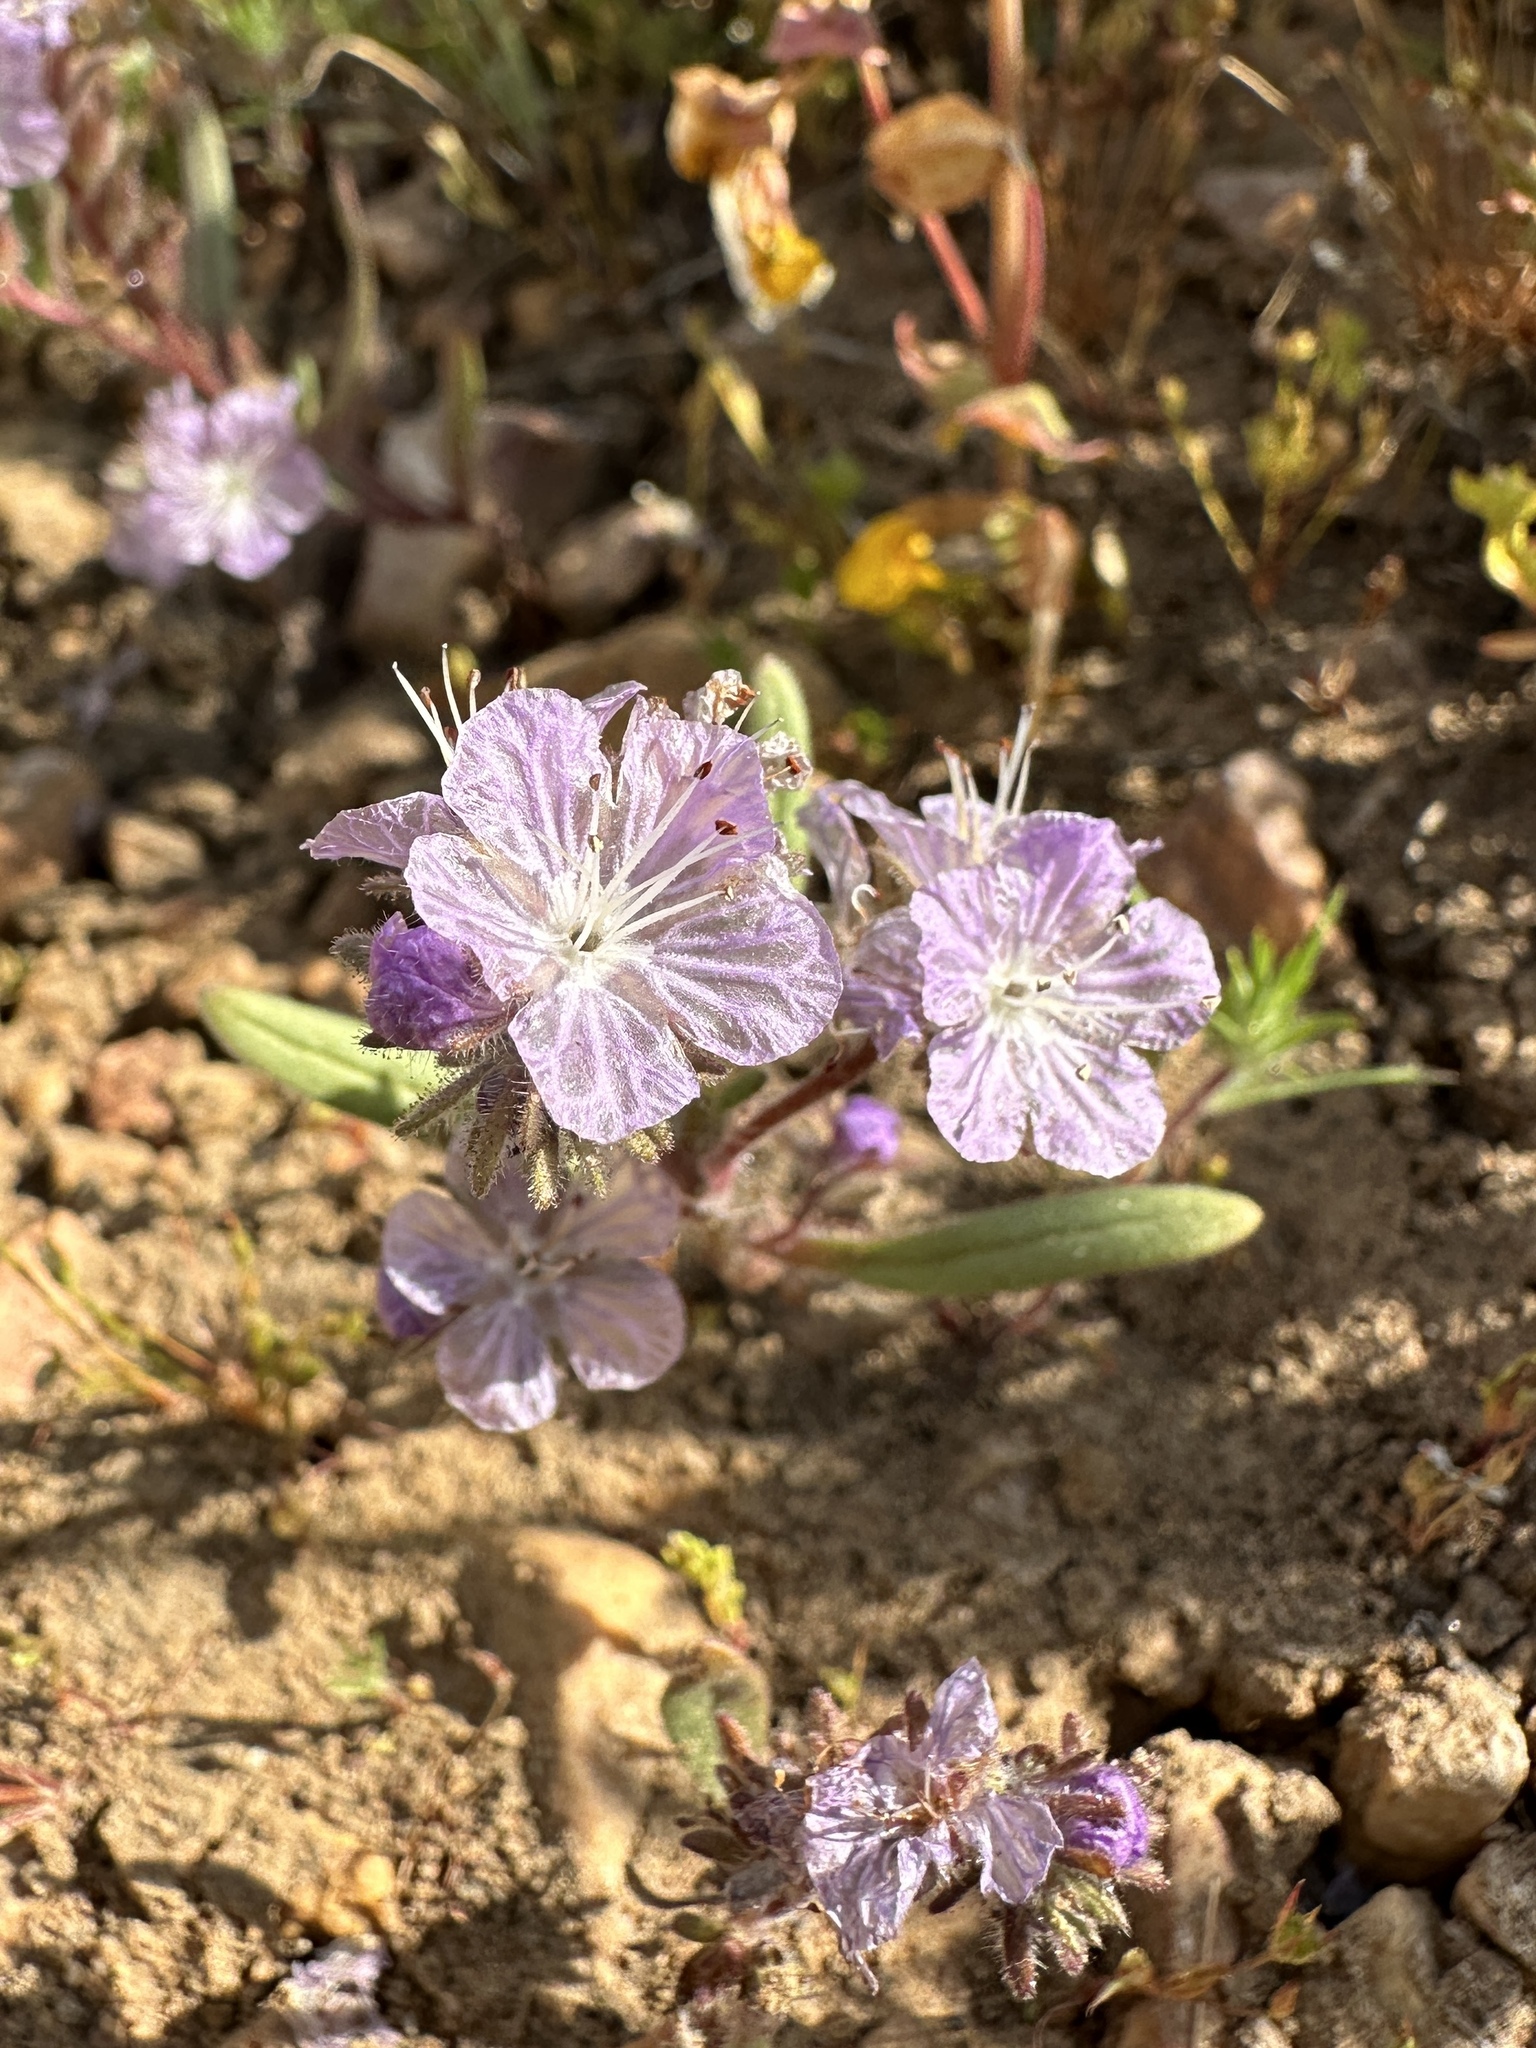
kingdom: Plantae
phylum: Tracheophyta
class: Magnoliopsida
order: Boraginales
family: Hydrophyllaceae
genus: Phacelia
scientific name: Phacelia exilis
